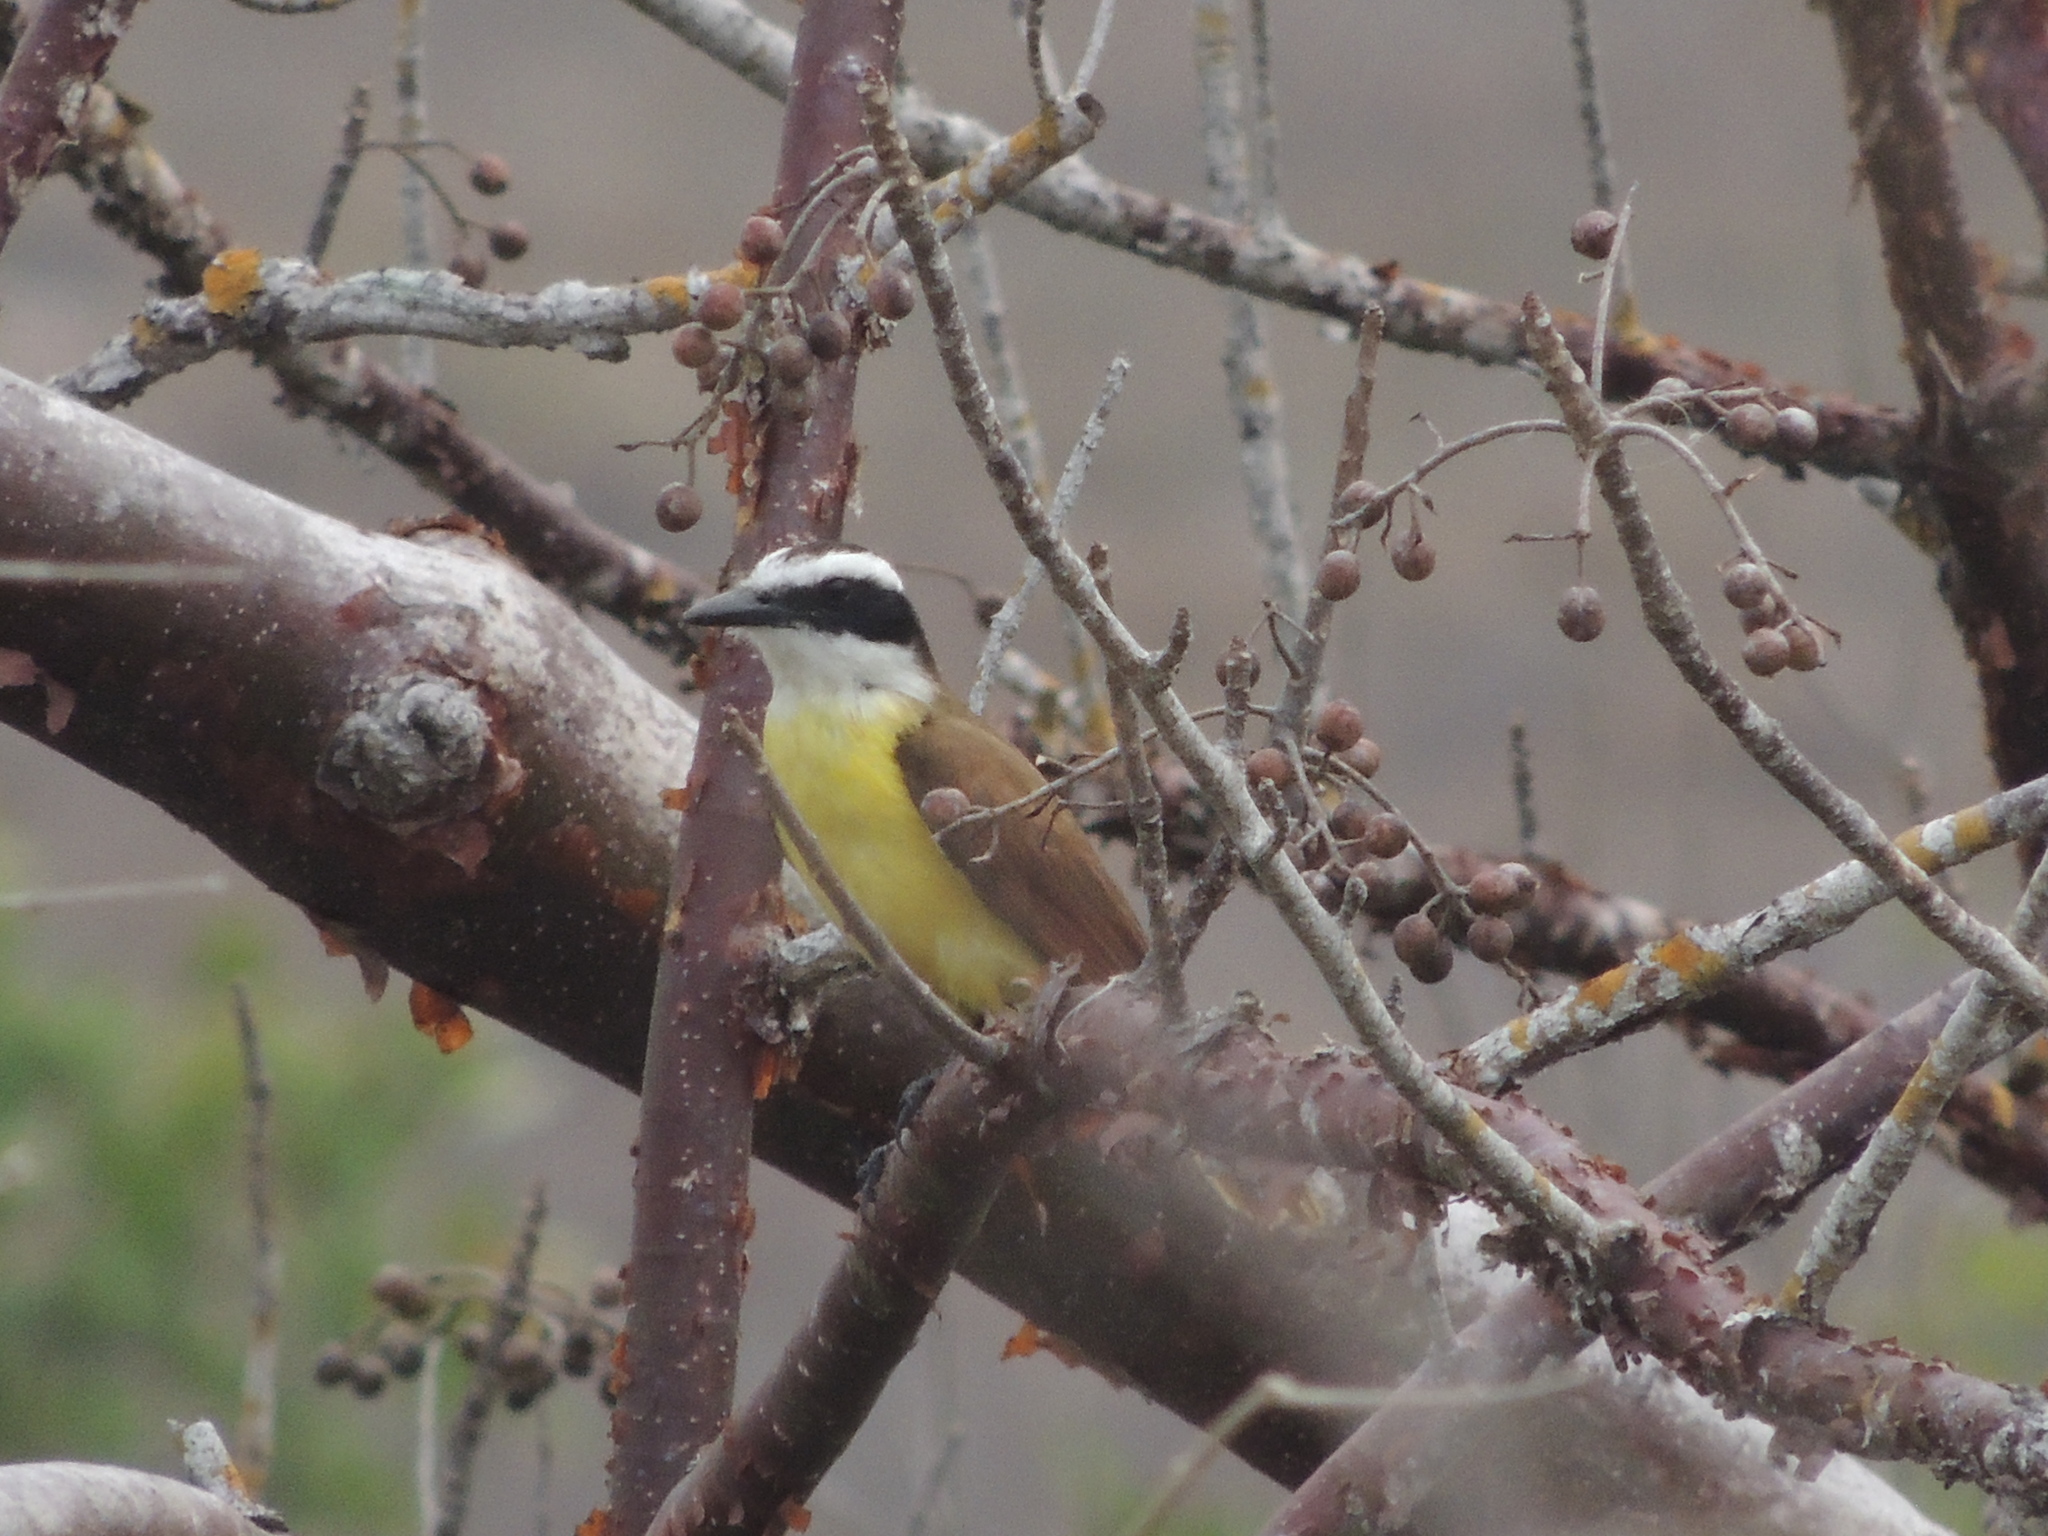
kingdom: Animalia
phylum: Chordata
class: Aves
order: Passeriformes
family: Tyrannidae
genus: Pitangus
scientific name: Pitangus sulphuratus
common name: Great kiskadee
